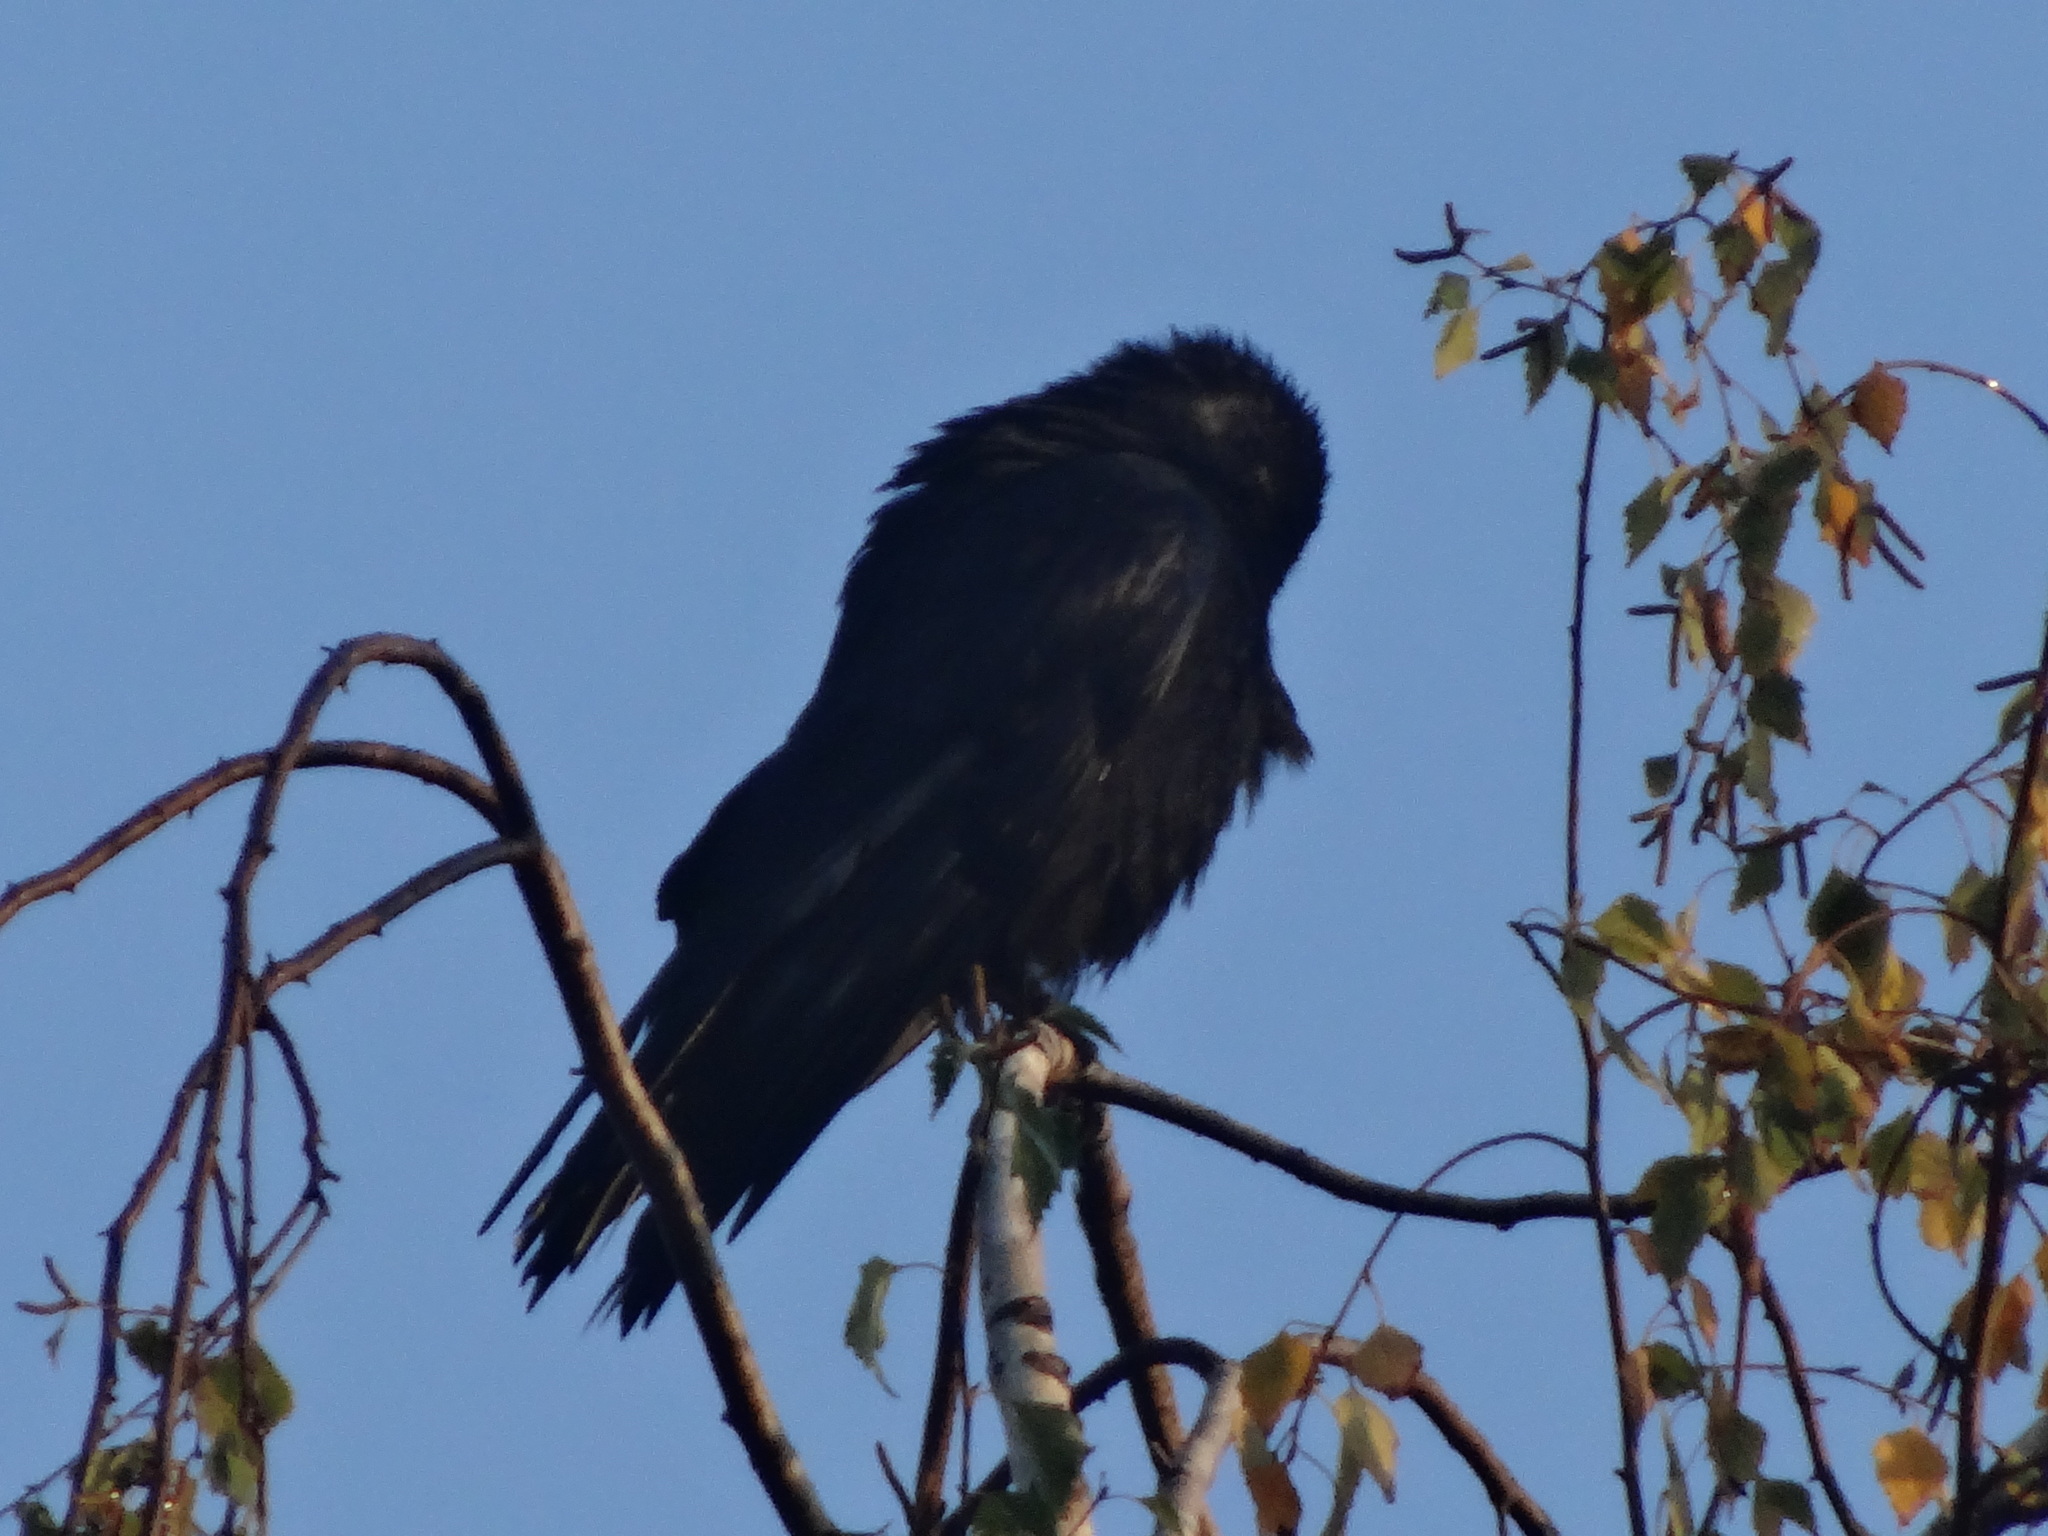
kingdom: Animalia
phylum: Chordata
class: Aves
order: Passeriformes
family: Corvidae
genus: Corvus
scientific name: Corvus corone
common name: Carrion crow
